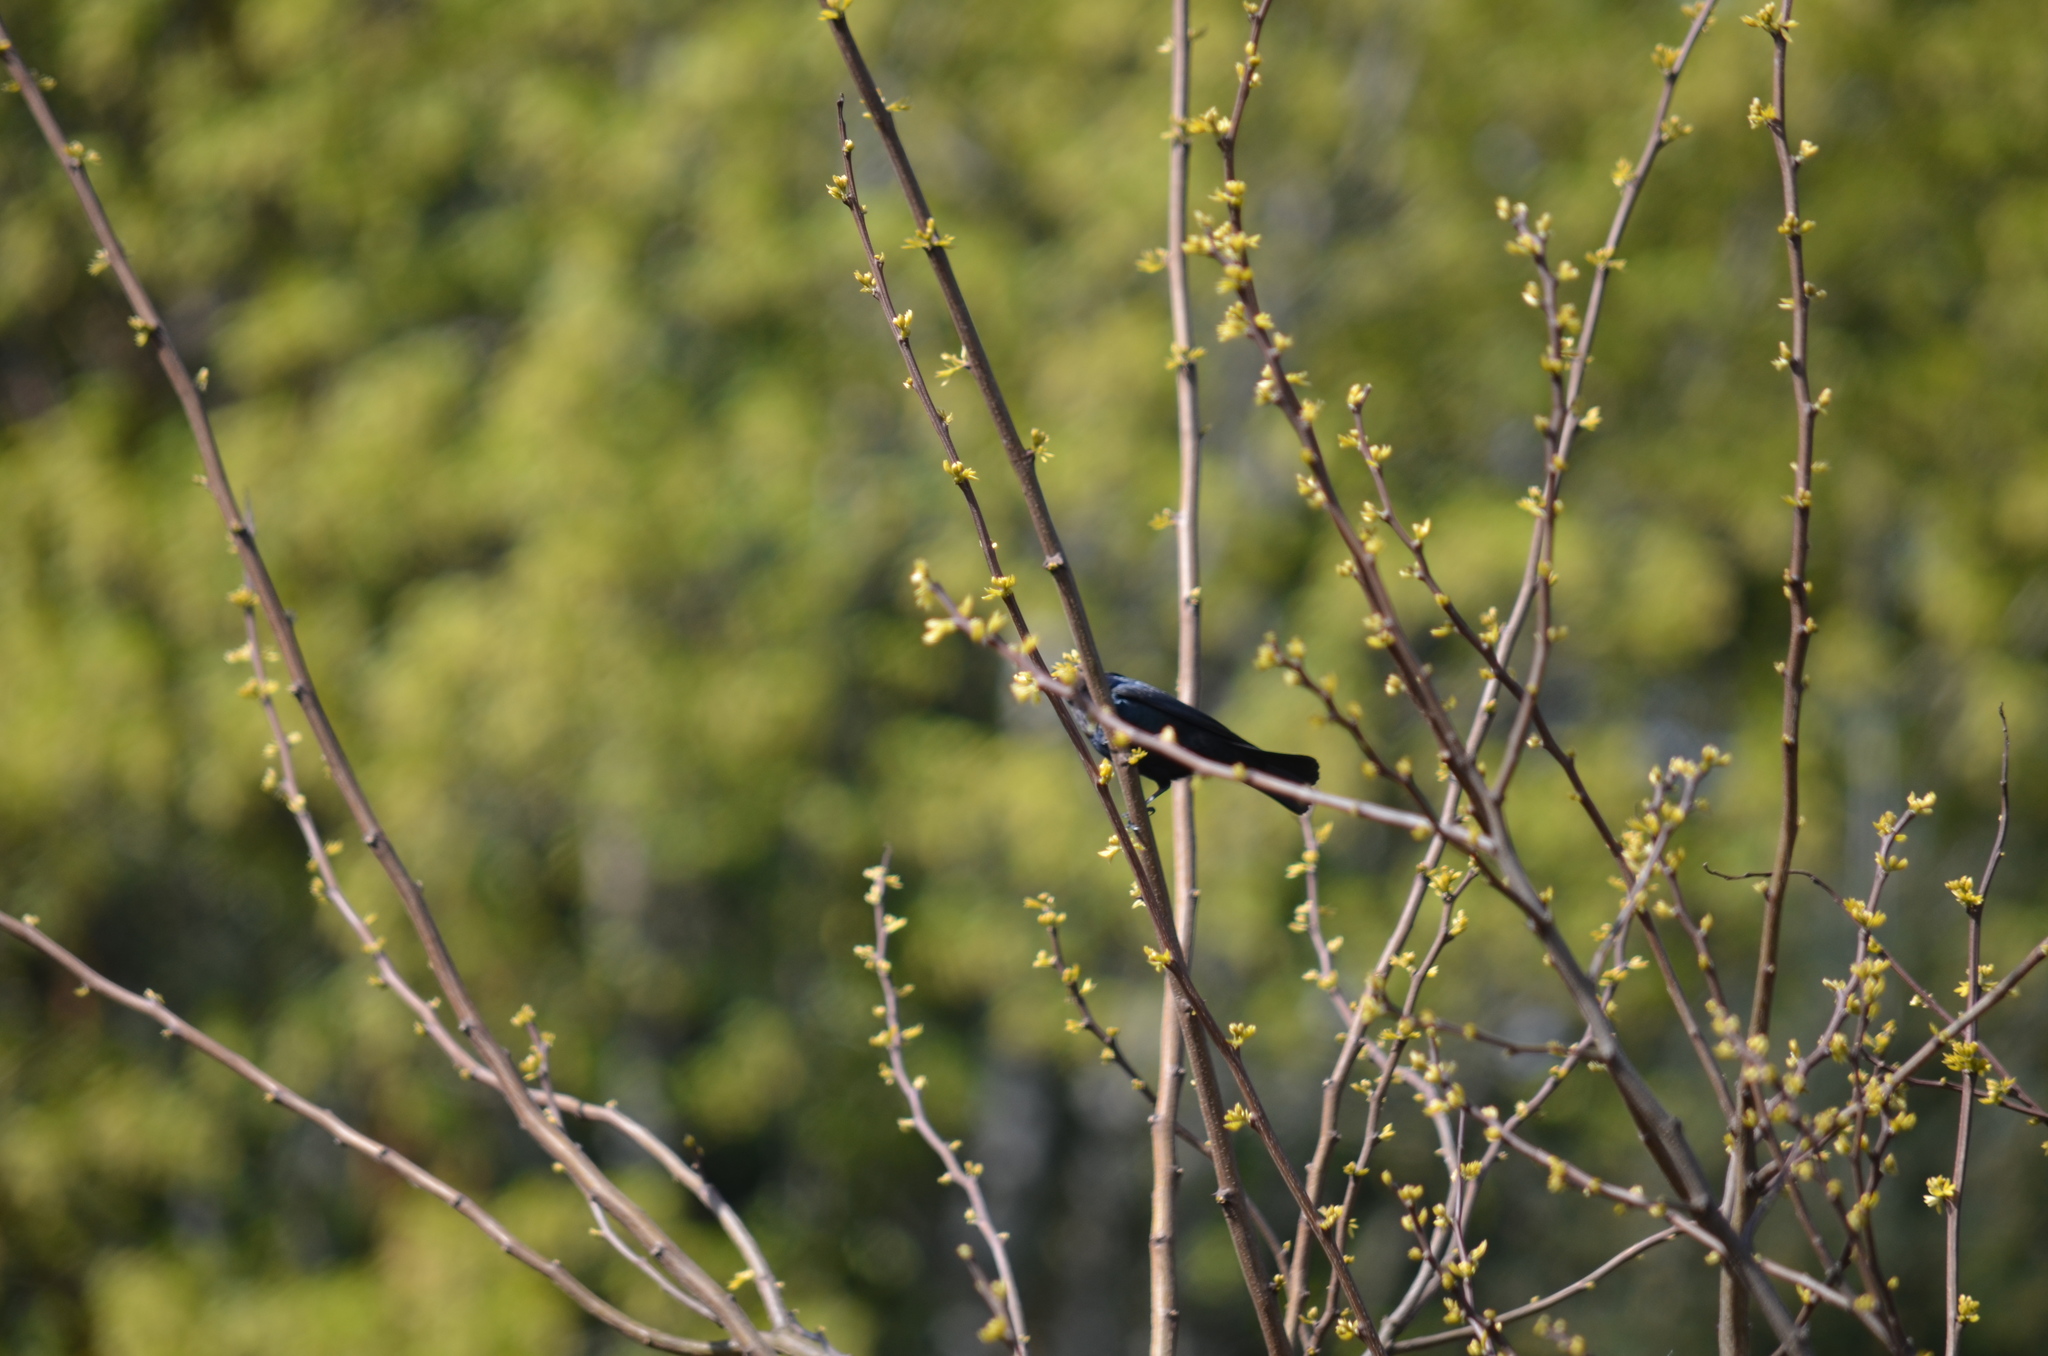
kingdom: Animalia
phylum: Chordata
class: Aves
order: Passeriformes
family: Icteridae
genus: Molothrus
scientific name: Molothrus ater
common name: Brown-headed cowbird
